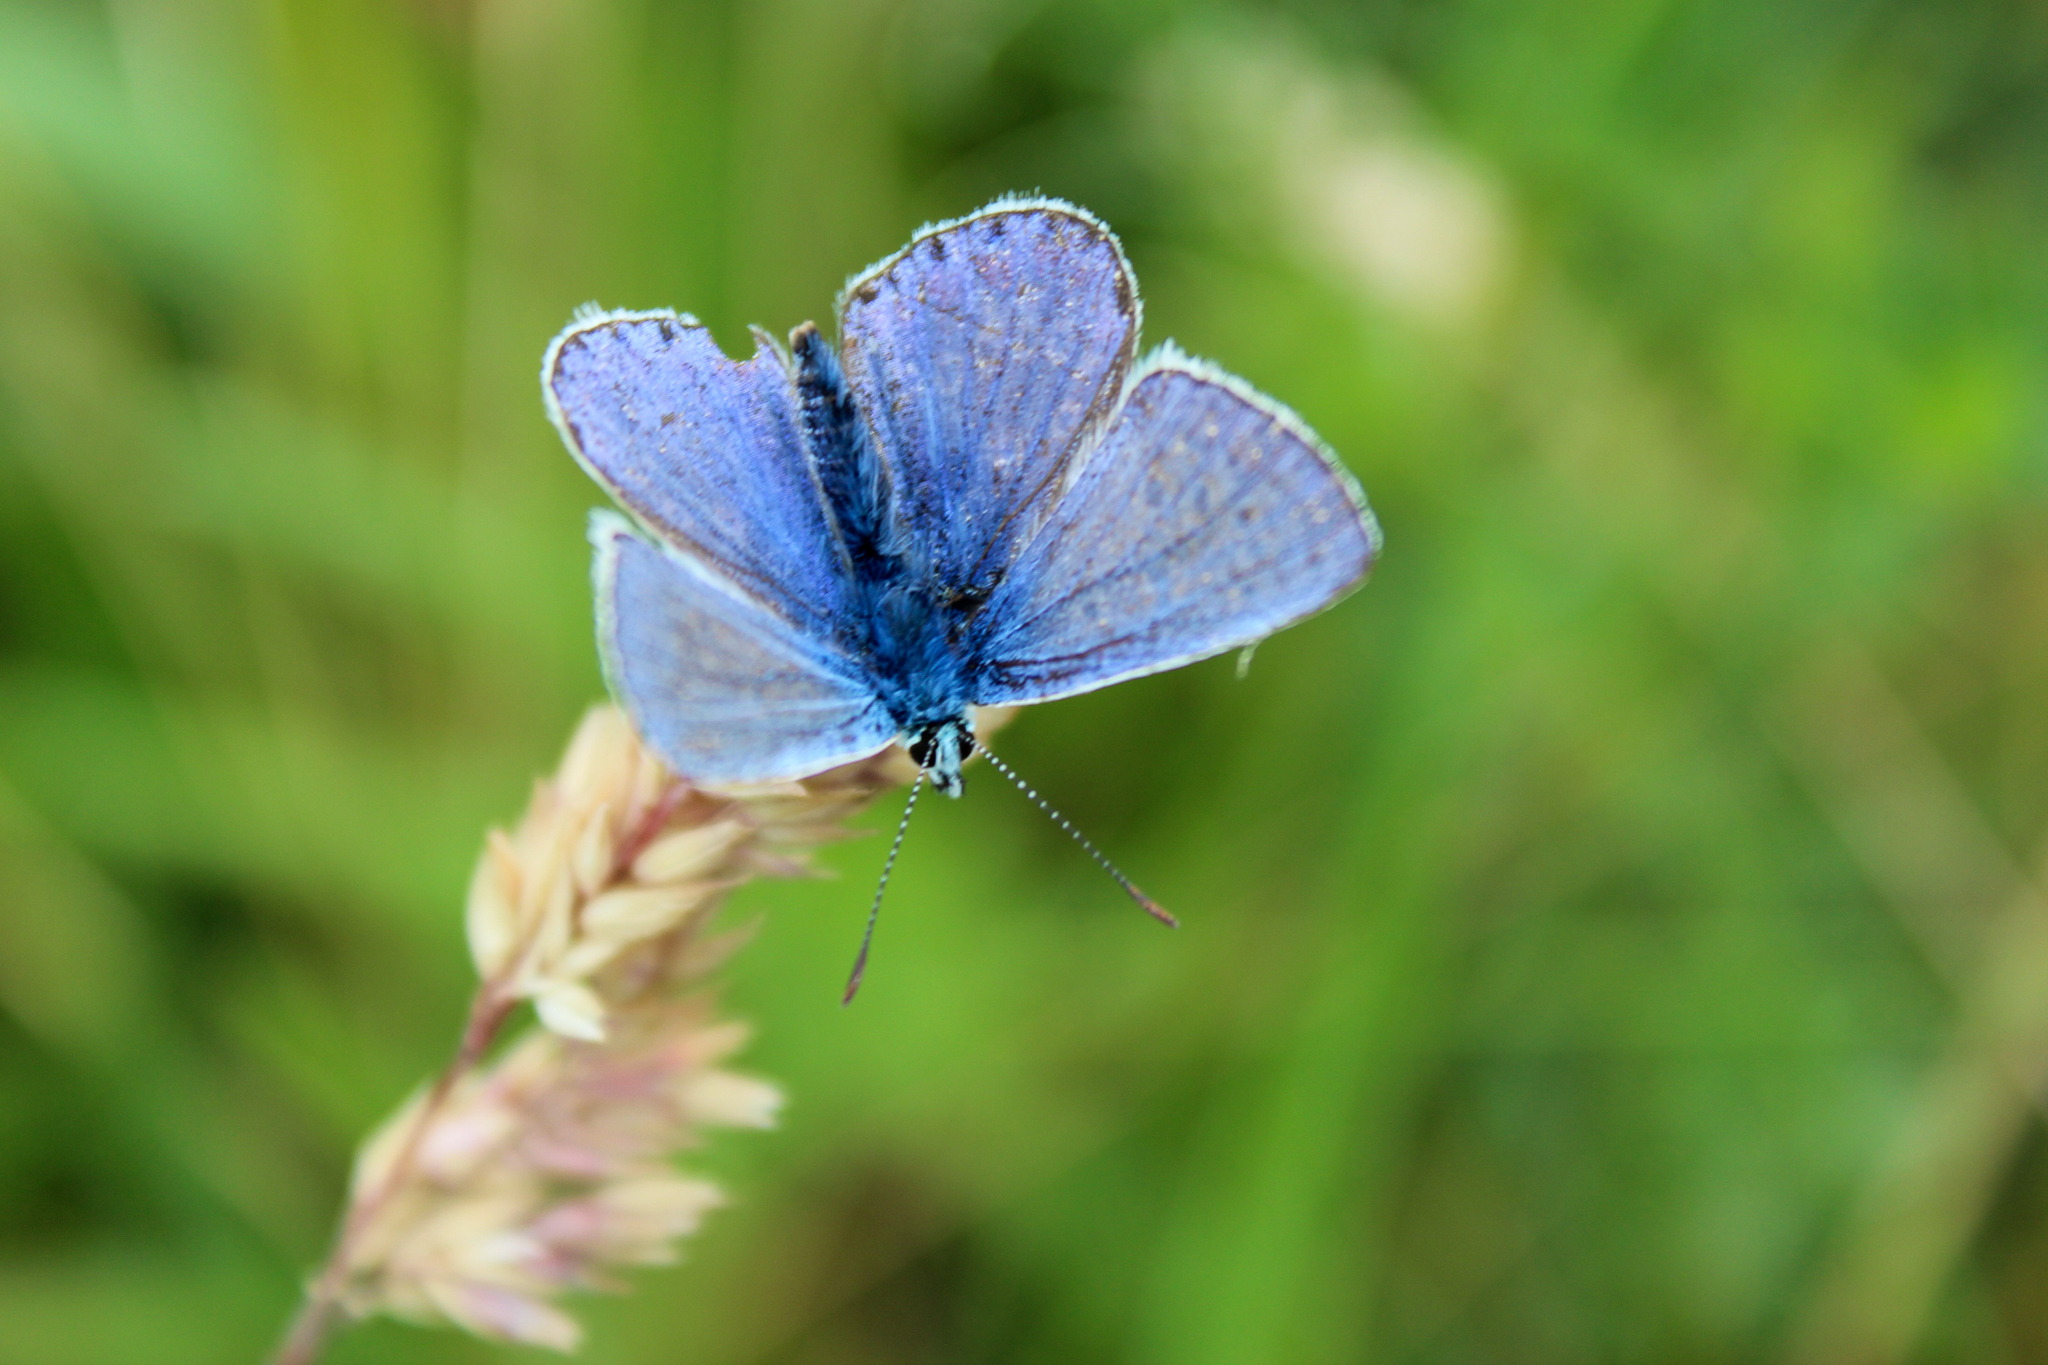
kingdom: Animalia
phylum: Arthropoda
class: Insecta
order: Lepidoptera
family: Lycaenidae
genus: Polyommatus
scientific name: Polyommatus icarus
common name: Common blue
